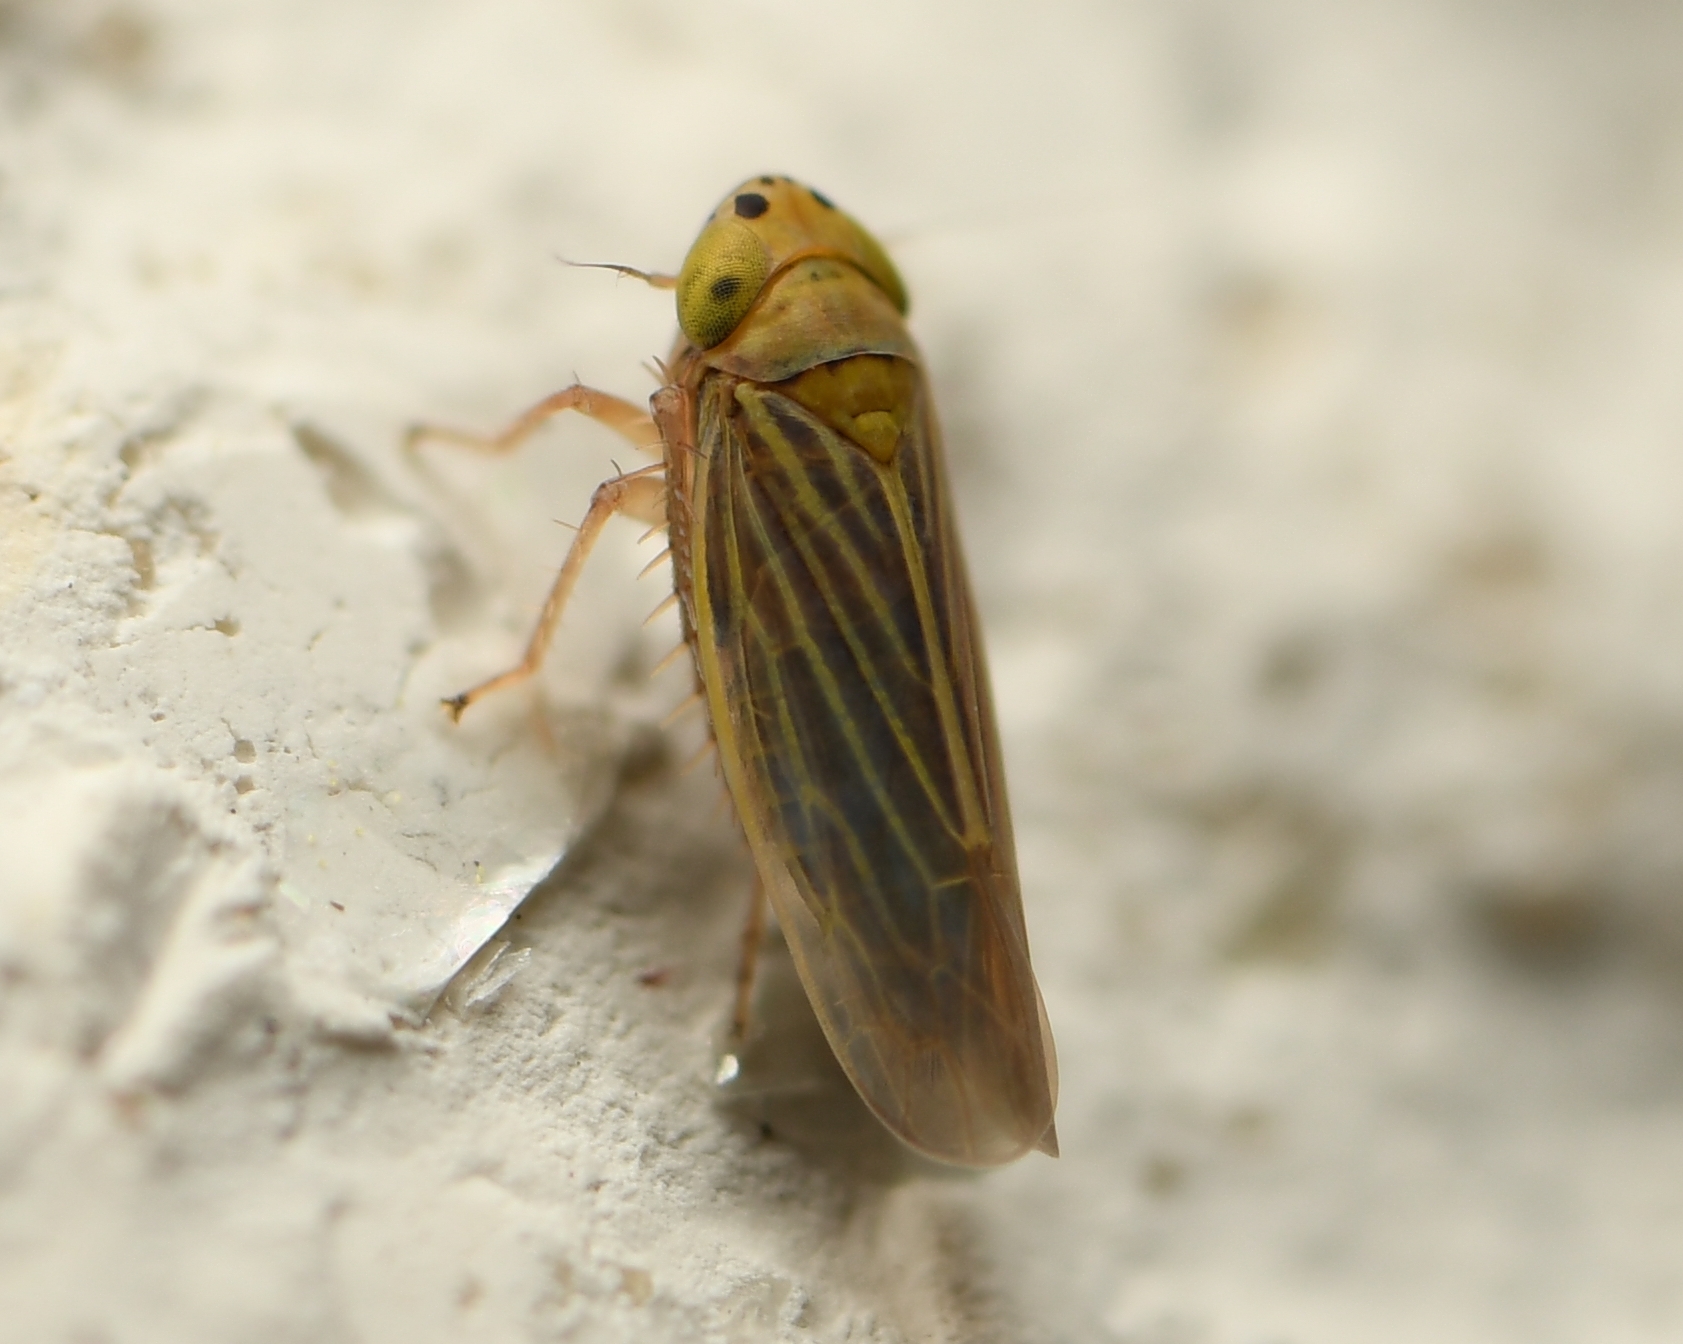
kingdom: Animalia
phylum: Arthropoda
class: Insecta
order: Hemiptera
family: Cicadellidae
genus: Graminella
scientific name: Graminella cognita
